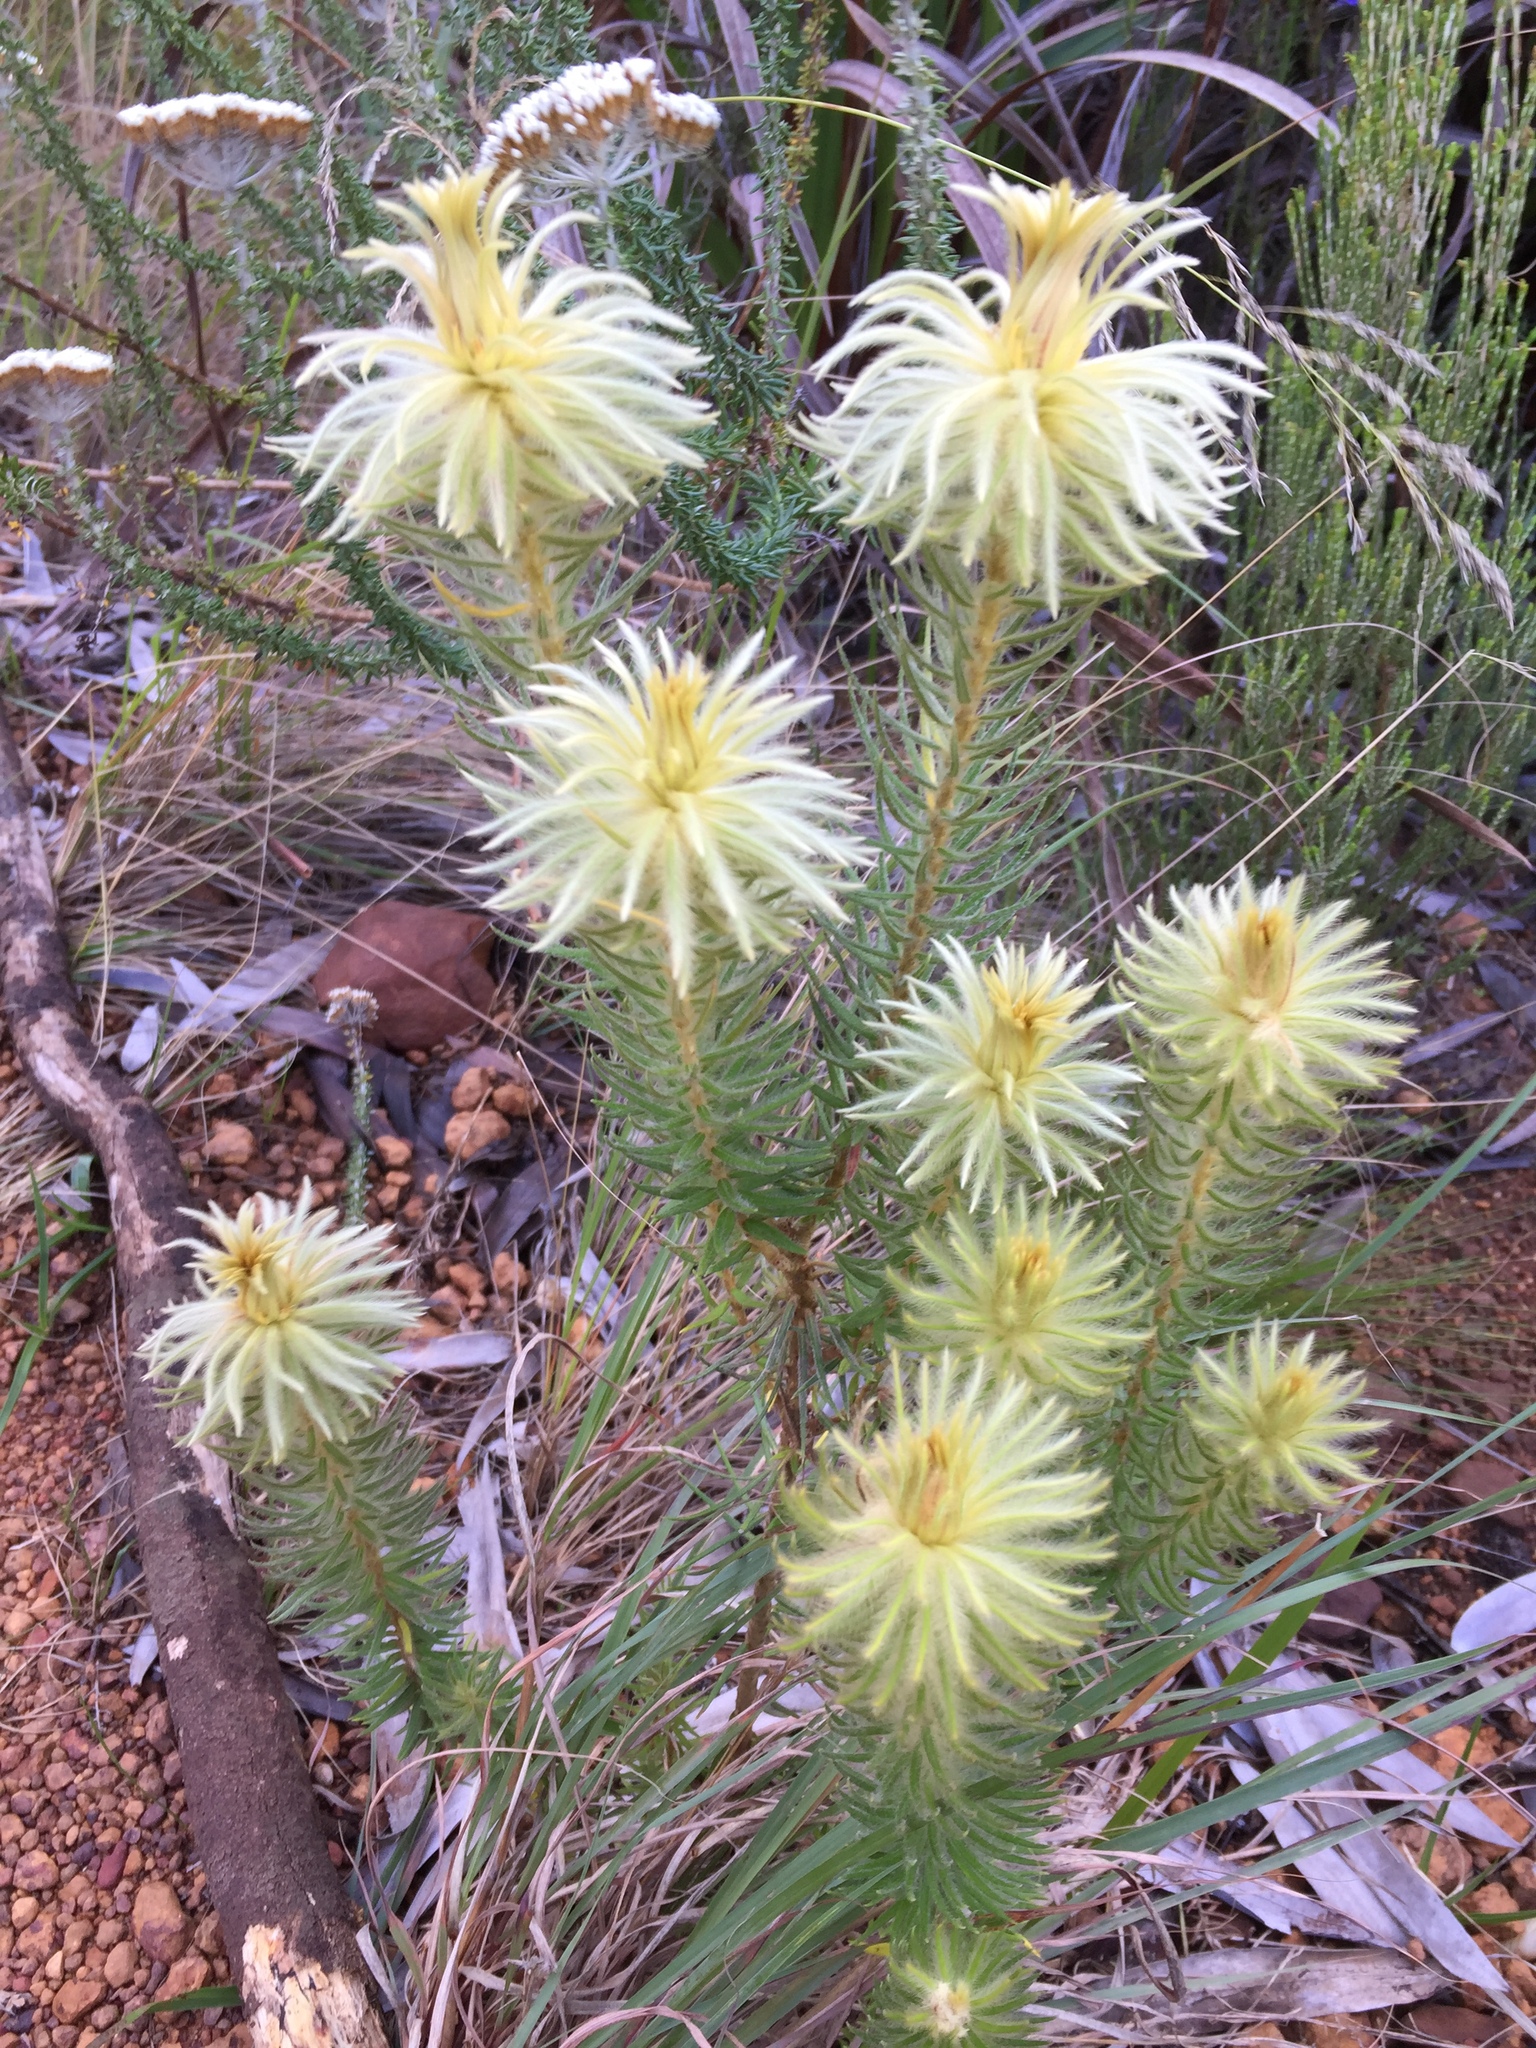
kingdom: Plantae
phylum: Tracheophyta
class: Magnoliopsida
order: Rosales
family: Rhamnaceae
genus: Phylica
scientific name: Phylica pubescens
